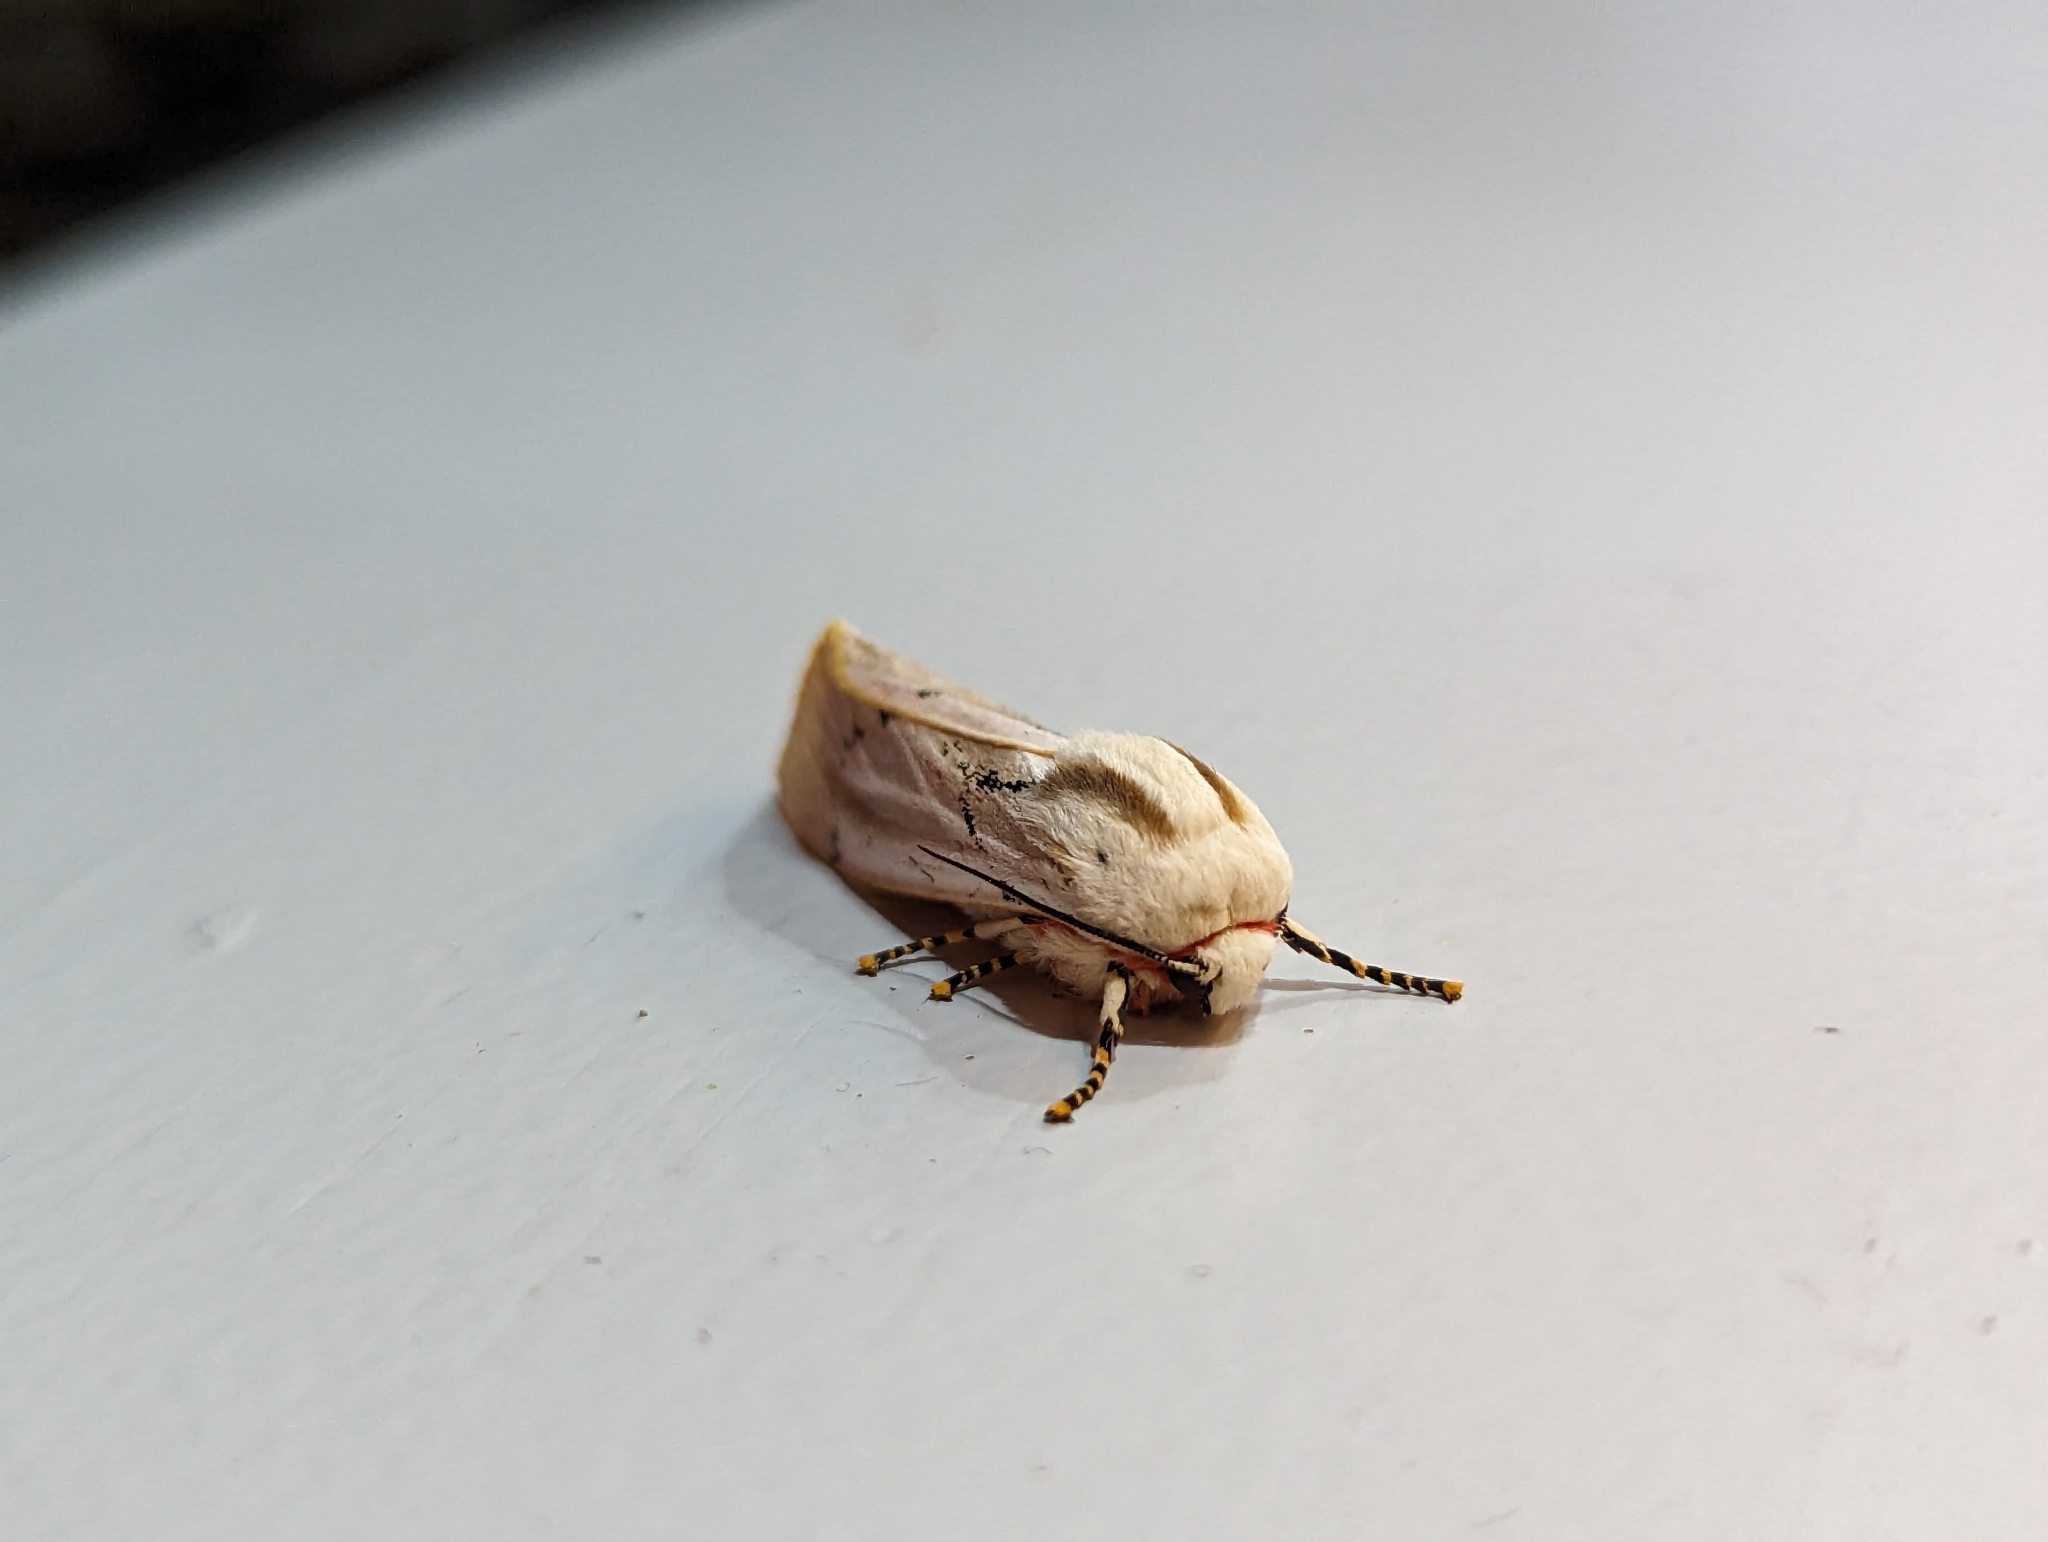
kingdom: Animalia
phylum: Arthropoda
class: Insecta
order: Lepidoptera
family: Erebidae
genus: Rhodogastria
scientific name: Rhodogastria amasis
